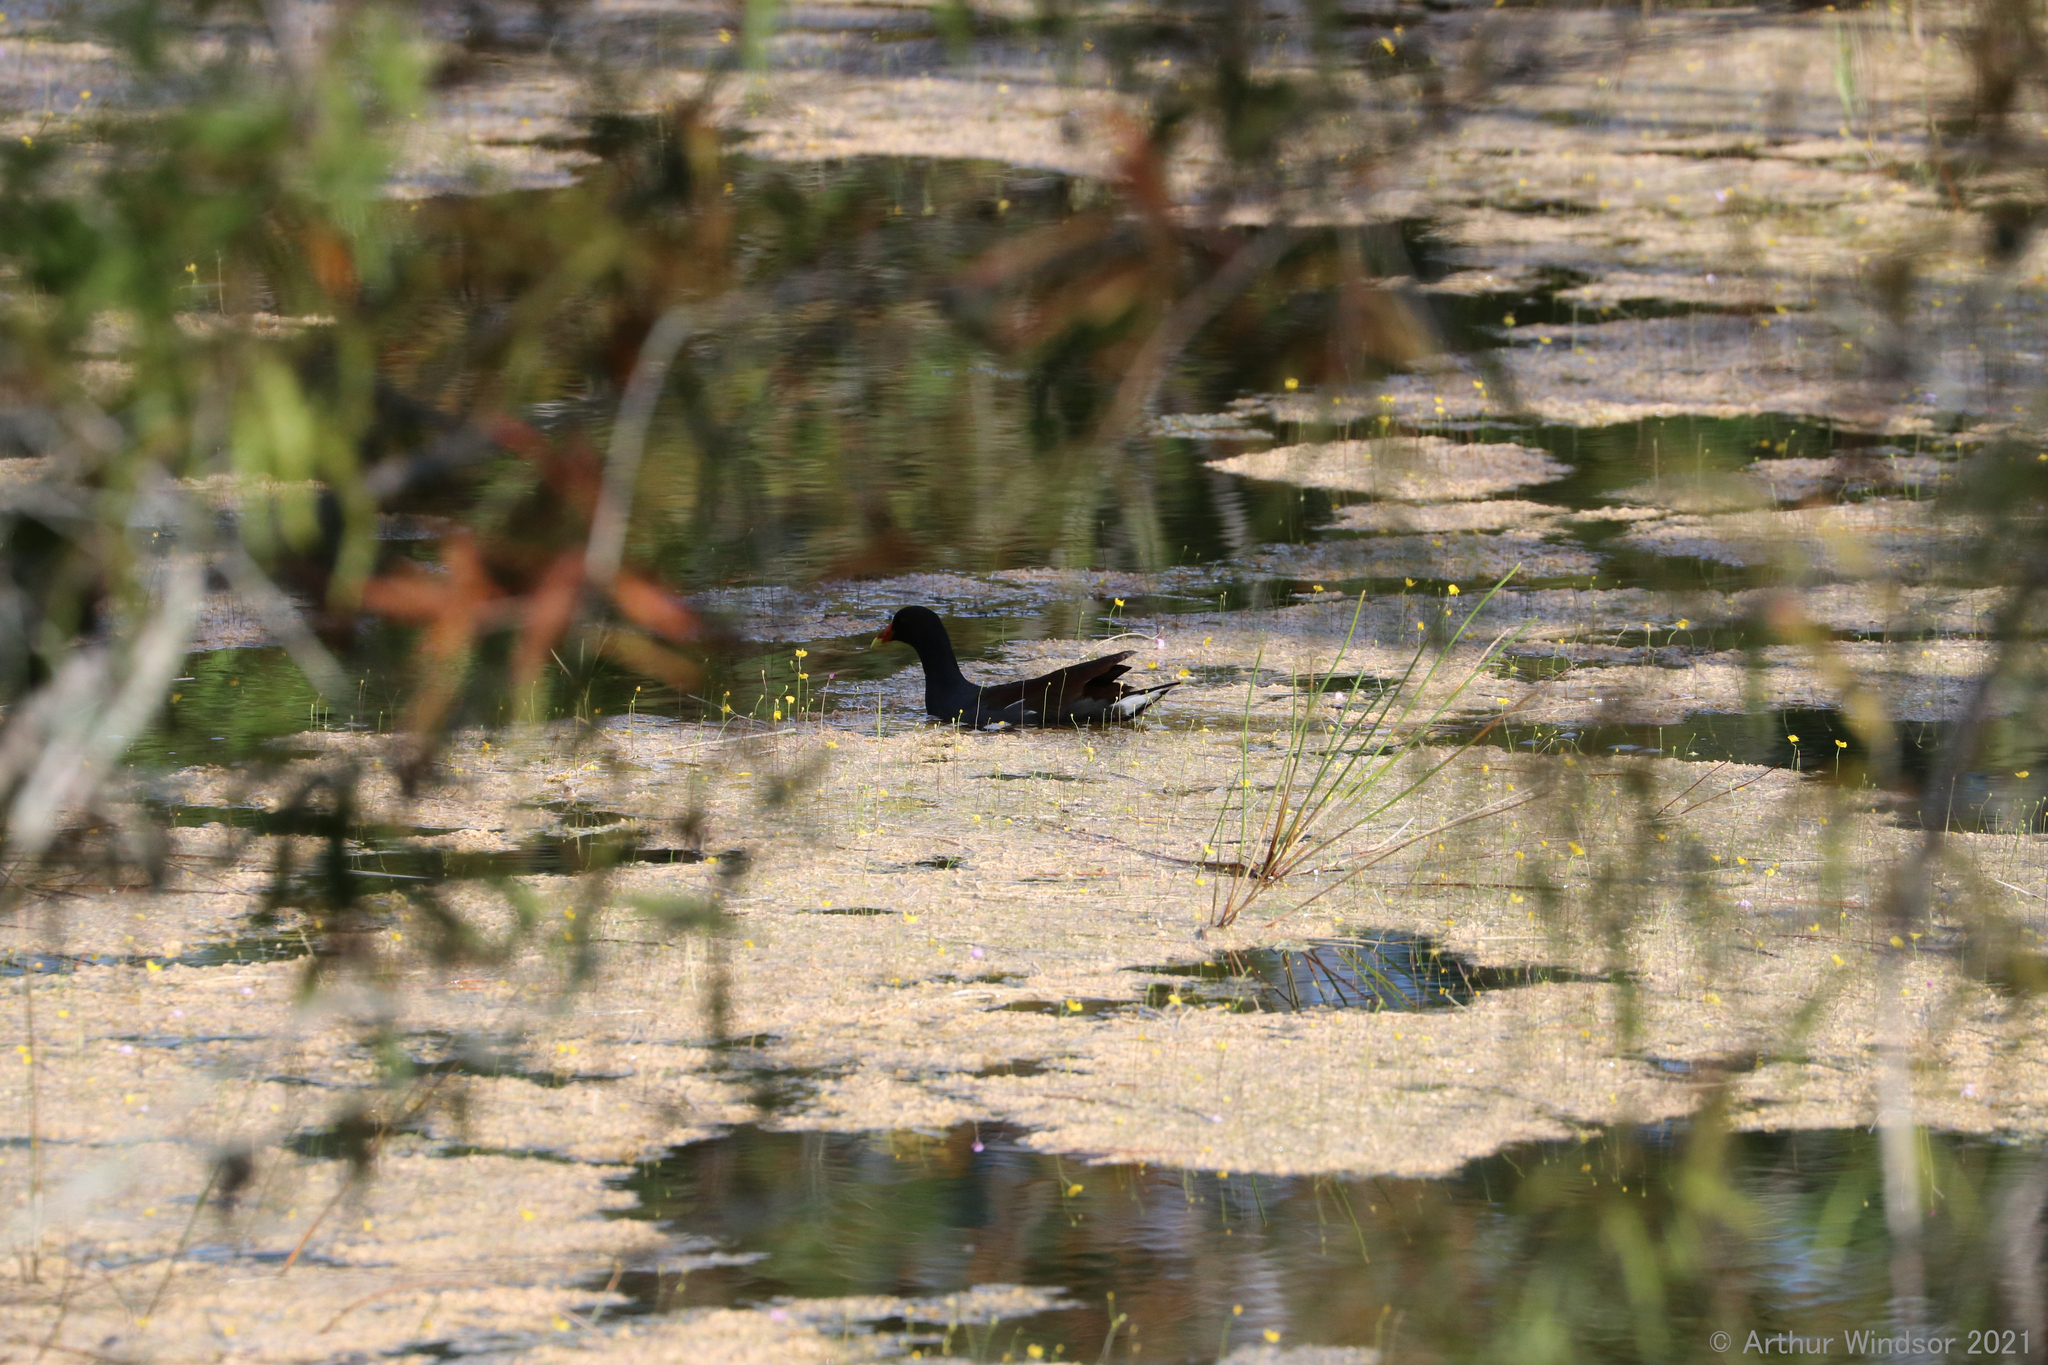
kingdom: Animalia
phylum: Chordata
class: Aves
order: Gruiformes
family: Rallidae
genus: Gallinula
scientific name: Gallinula chloropus
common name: Common moorhen
